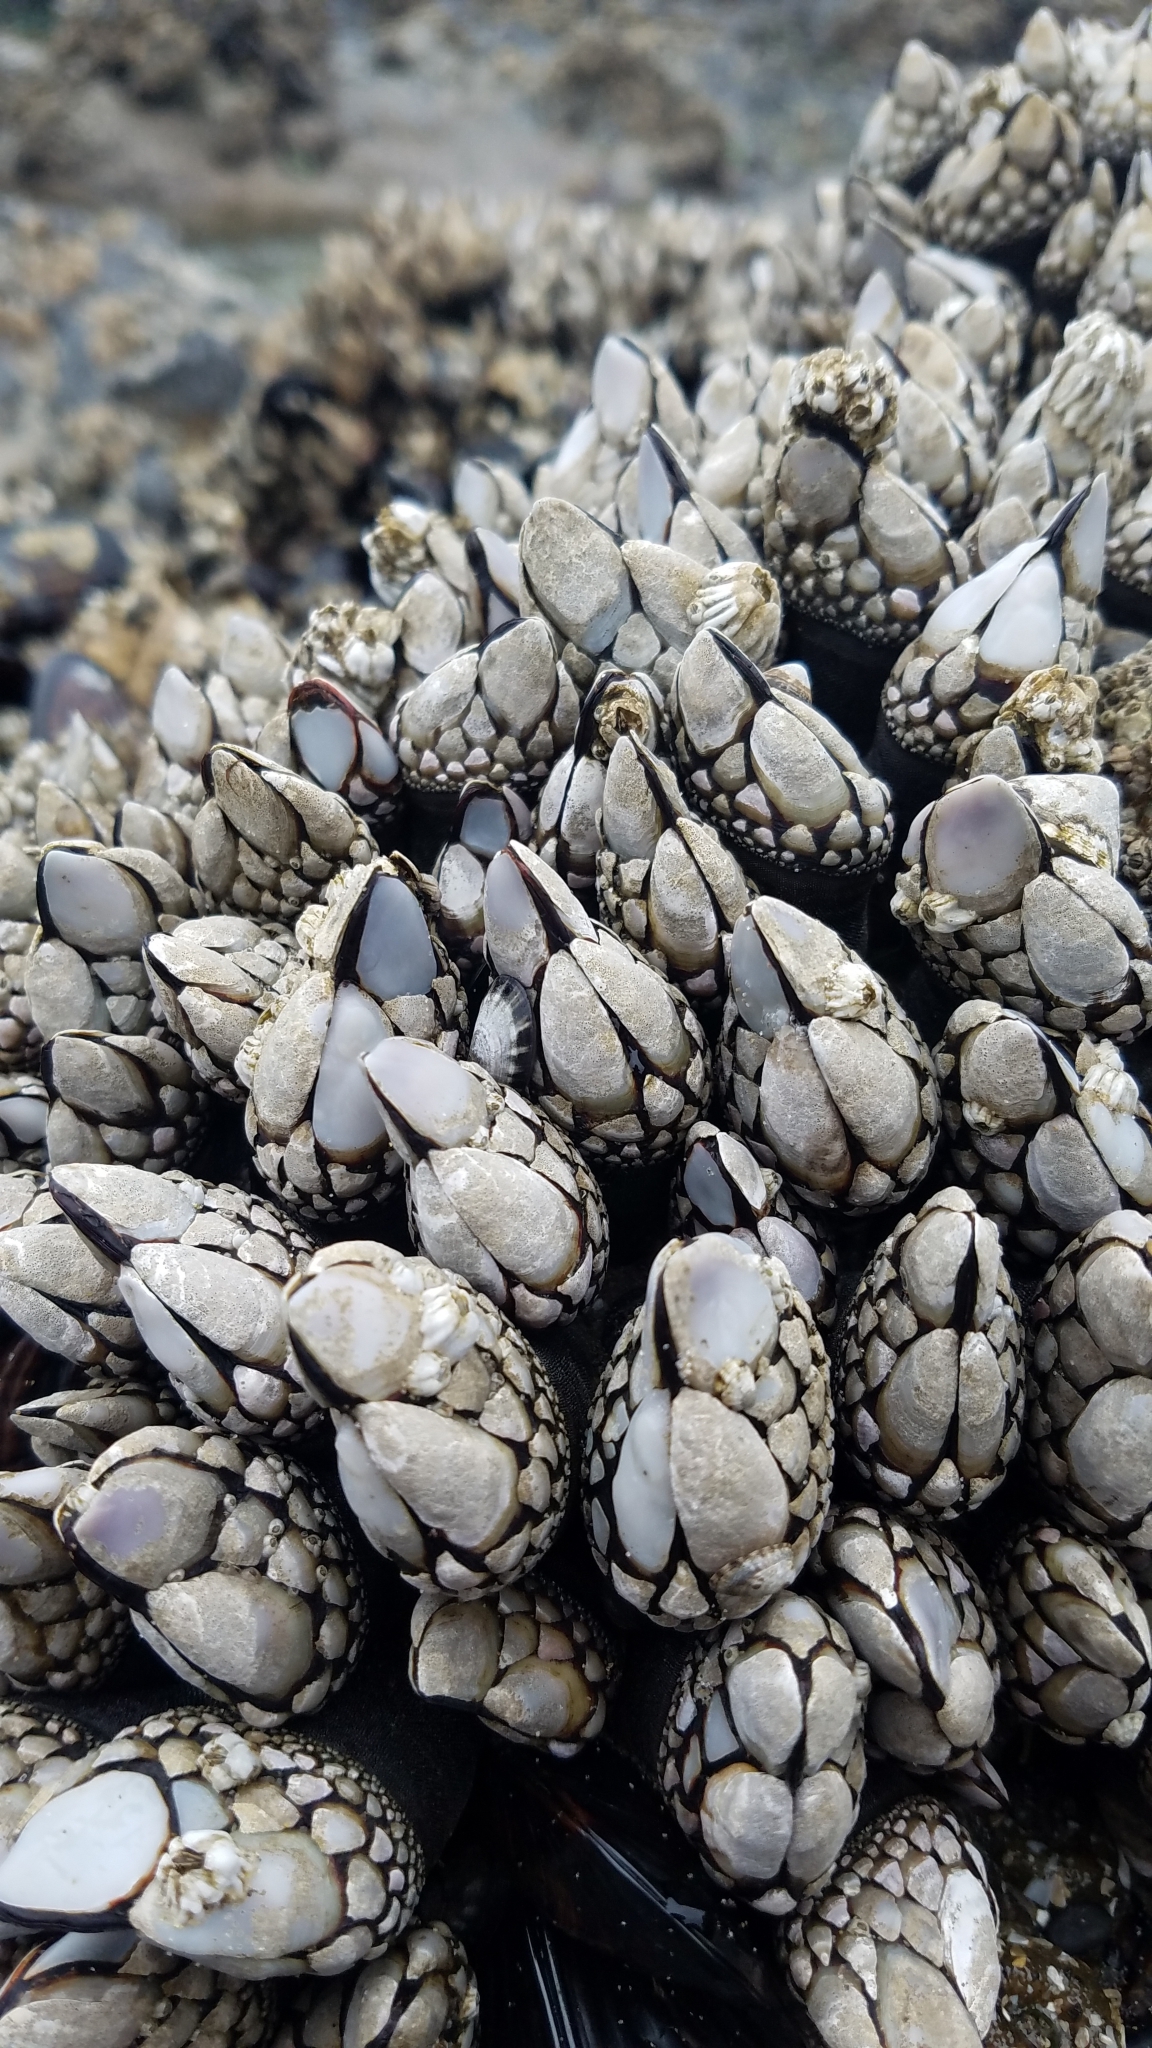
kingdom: Animalia
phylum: Arthropoda
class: Maxillopoda
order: Pedunculata
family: Pollicipedidae
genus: Pollicipes
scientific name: Pollicipes polymerus
